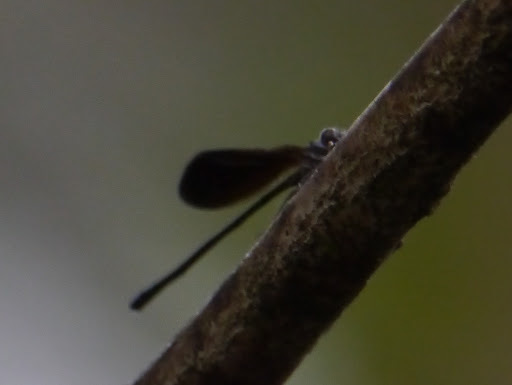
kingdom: Animalia
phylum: Arthropoda
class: Insecta
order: Odonata
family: Coenagrionidae
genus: Argia
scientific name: Argia fumipennis
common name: Variable dancer
